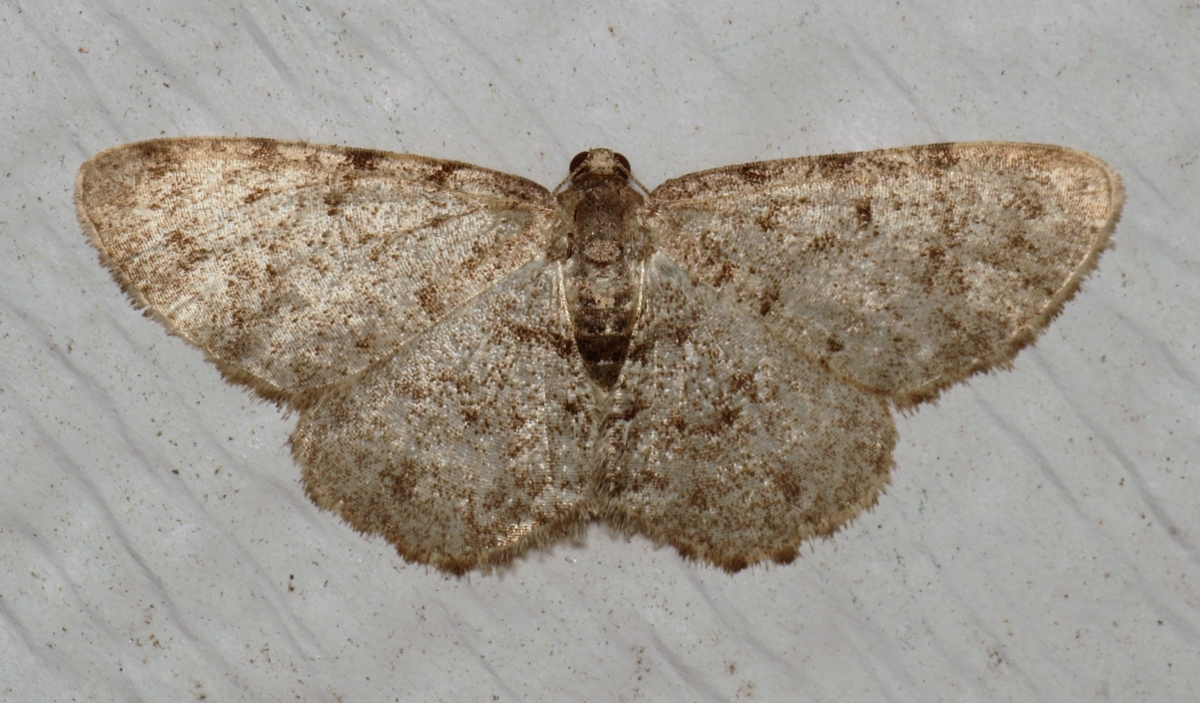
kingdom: Animalia
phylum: Arthropoda
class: Insecta
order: Lepidoptera
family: Geometridae
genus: Aethalura
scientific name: Aethalura intertexta
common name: Four-barred gray
